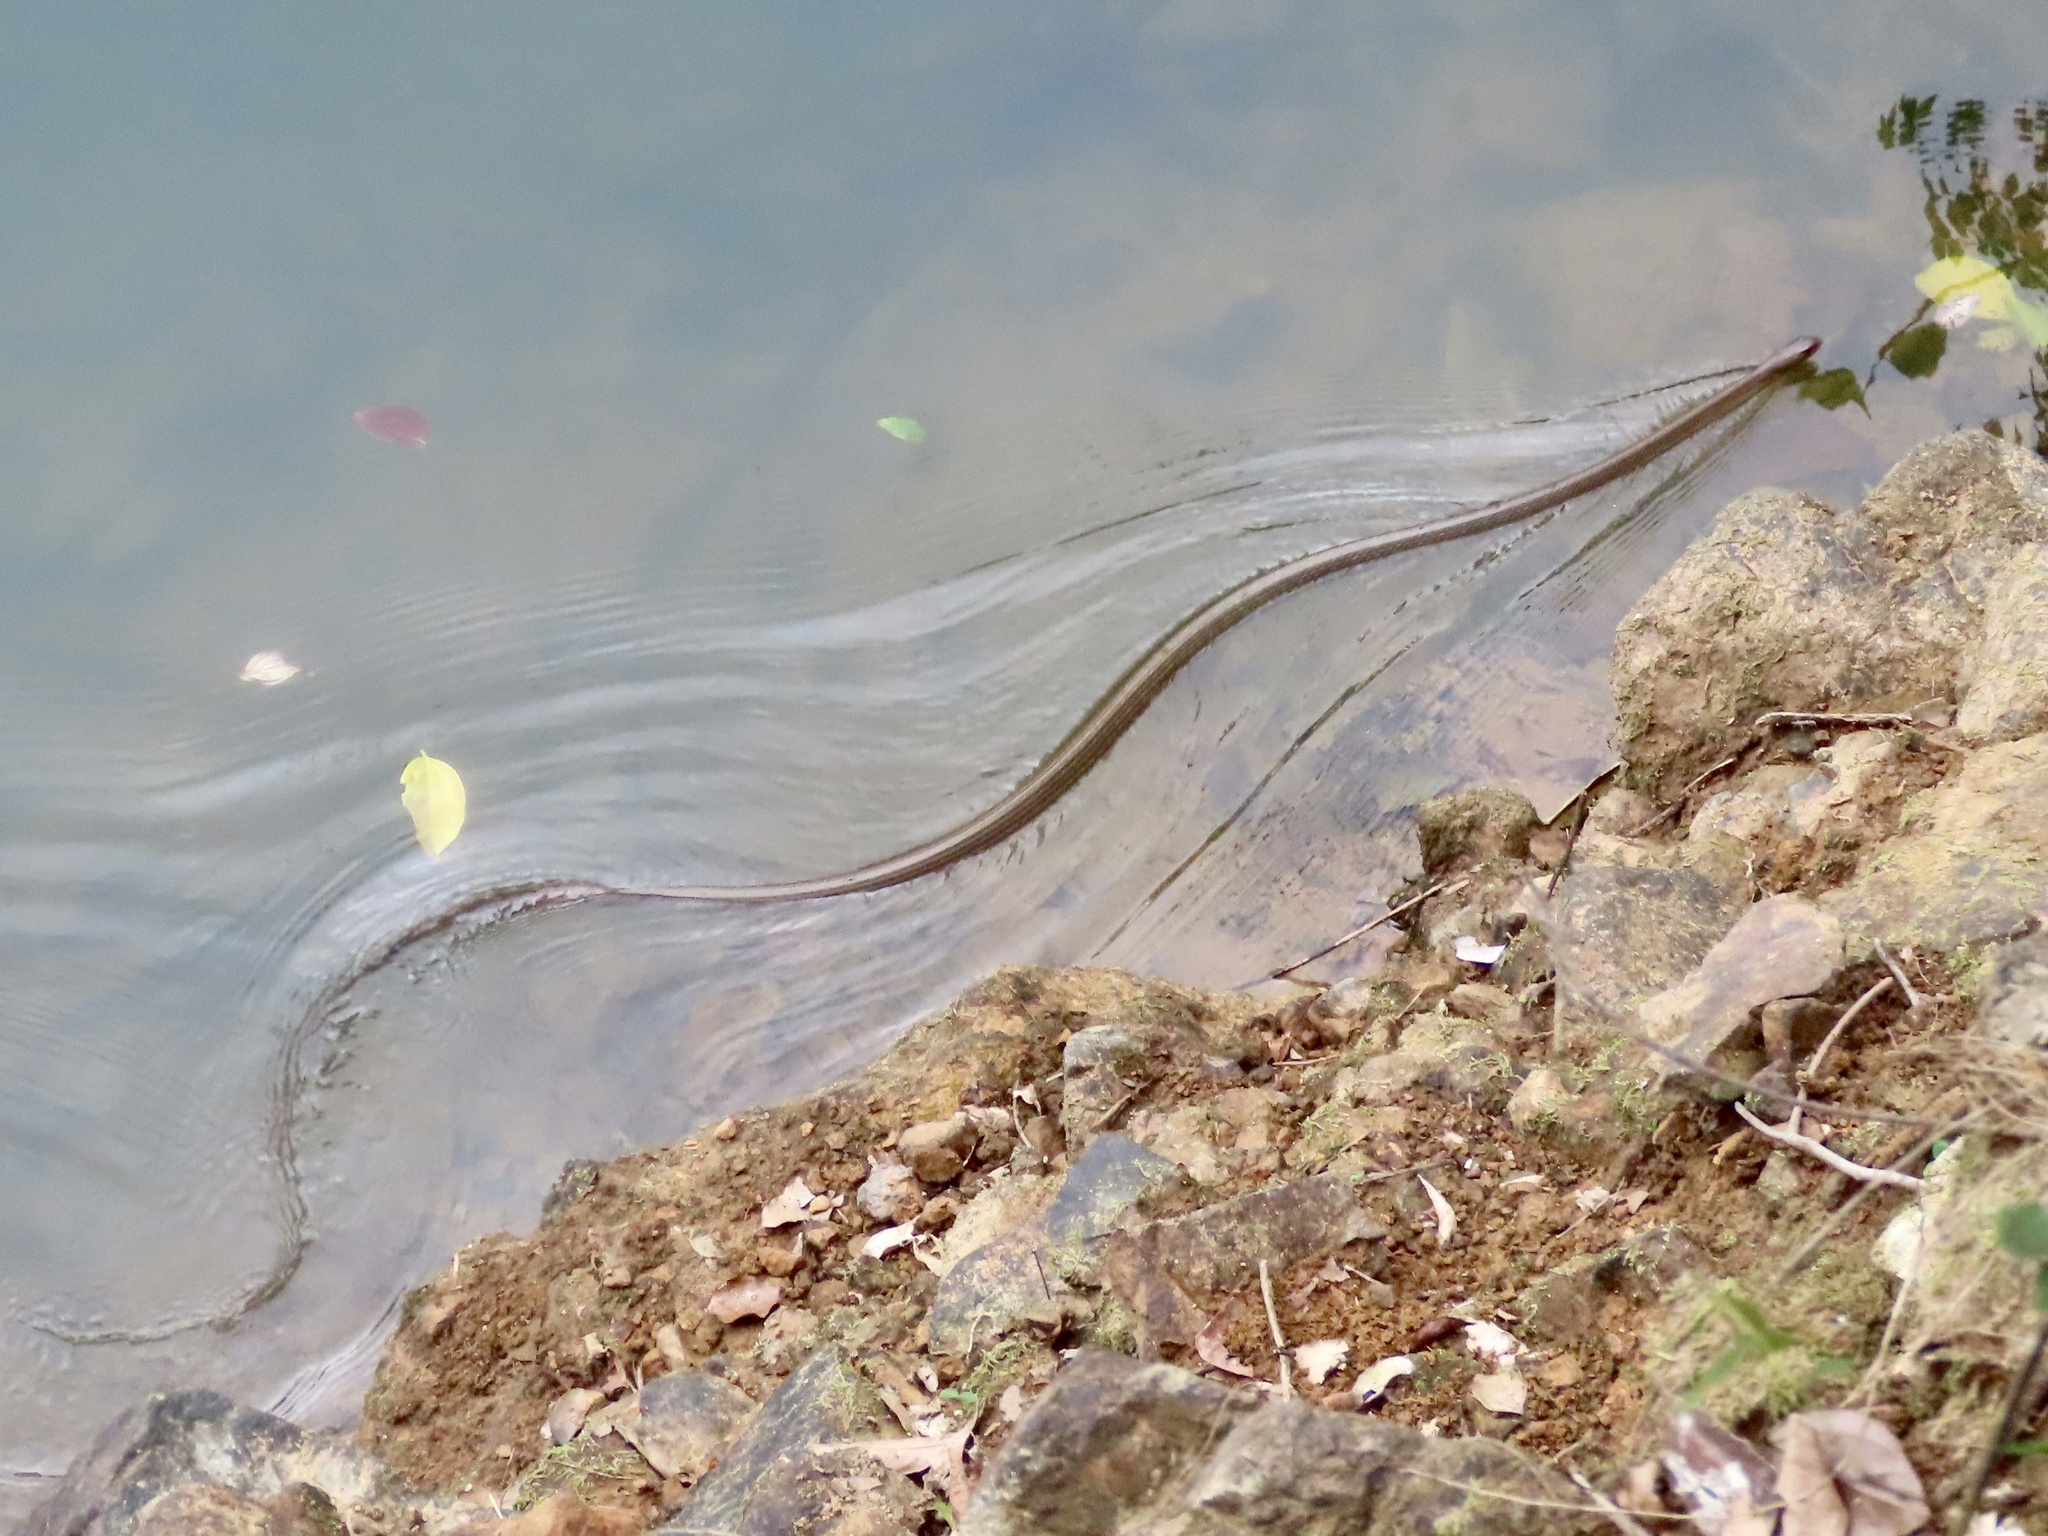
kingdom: Animalia
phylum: Chordata
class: Squamata
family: Colubridae
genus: Ptyas
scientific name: Ptyas korros
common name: Indo-chinese rat snake
